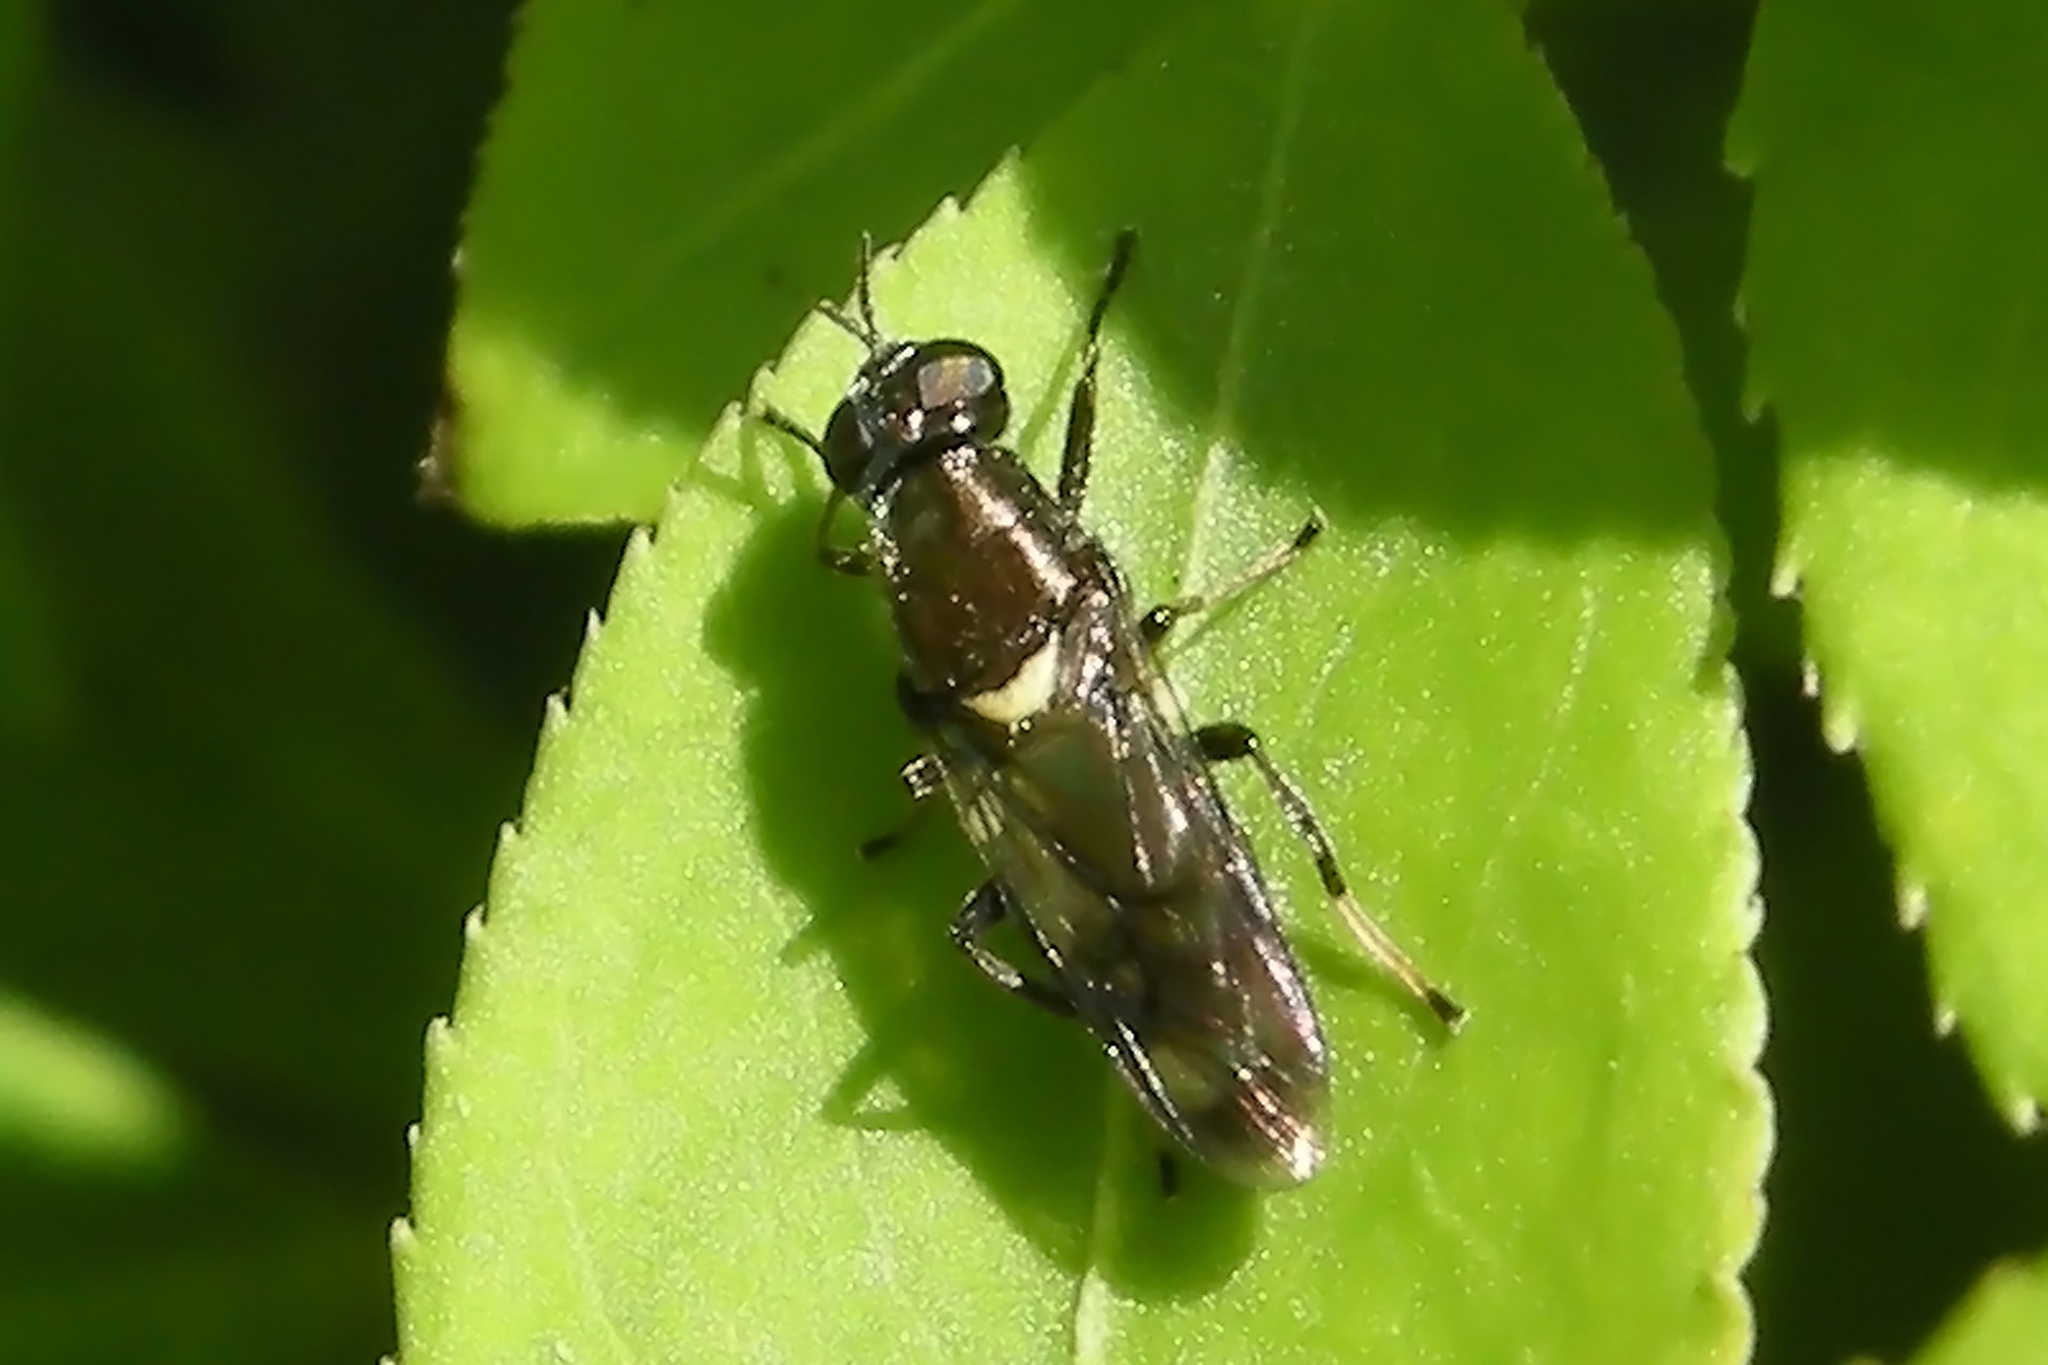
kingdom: Animalia
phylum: Arthropoda
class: Insecta
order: Diptera
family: Stratiomyidae
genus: Myxosargus
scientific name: Myxosargus nigricormis
